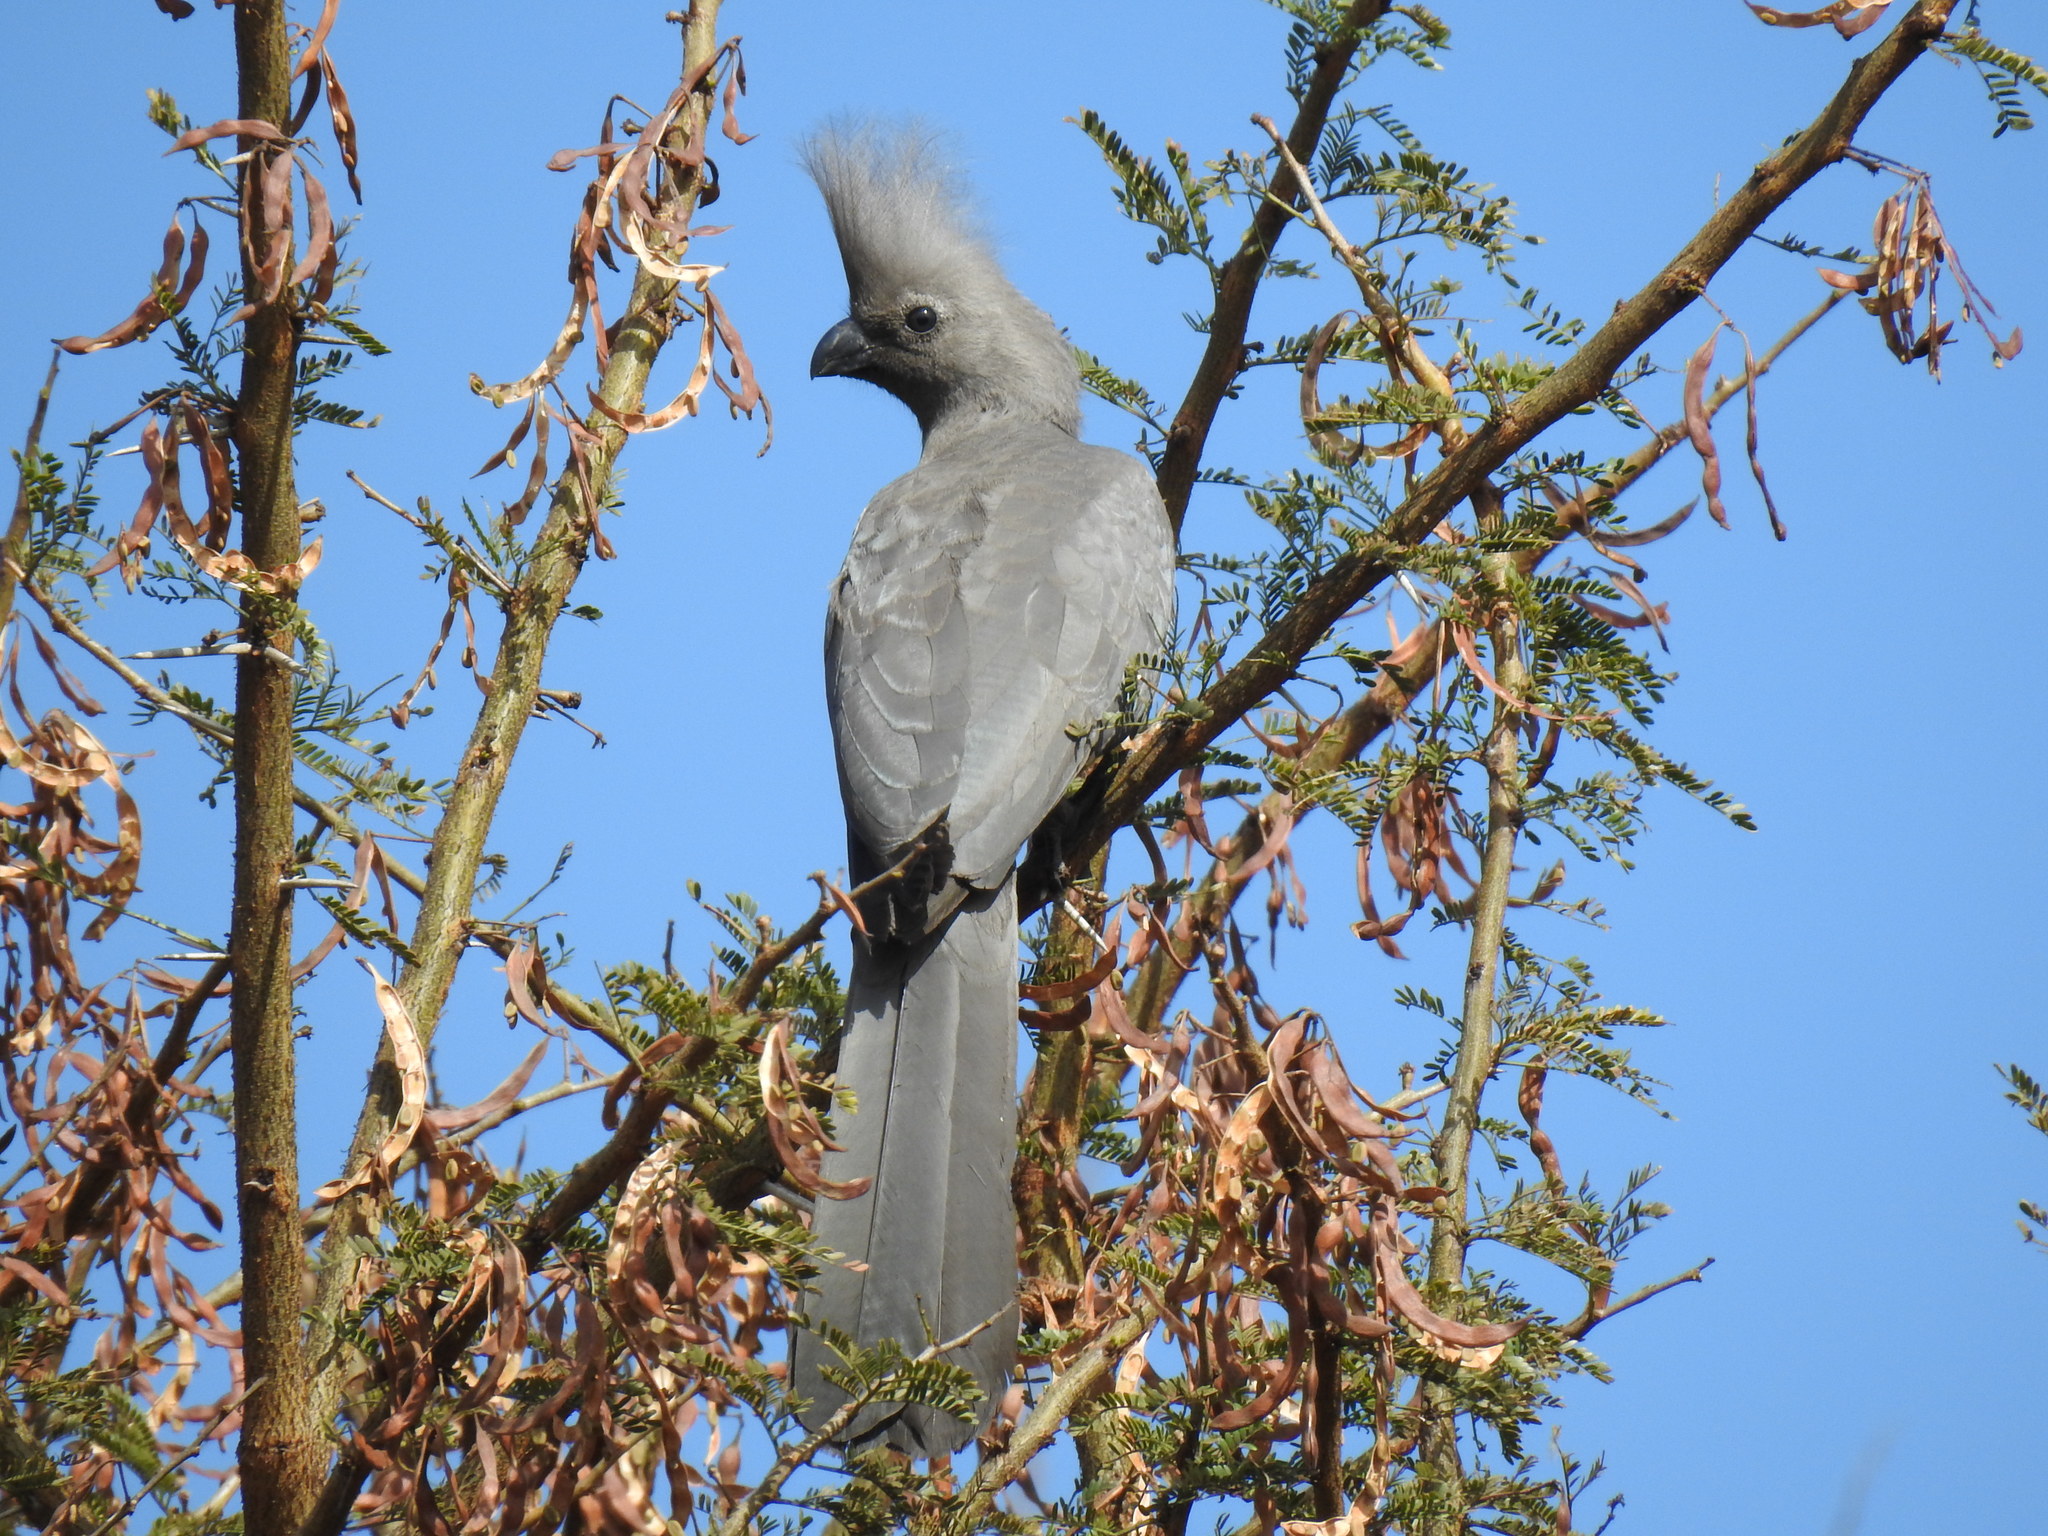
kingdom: Animalia
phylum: Chordata
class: Aves
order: Musophagiformes
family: Musophagidae
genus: Corythaixoides
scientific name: Corythaixoides concolor
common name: Grey go-away-bird
